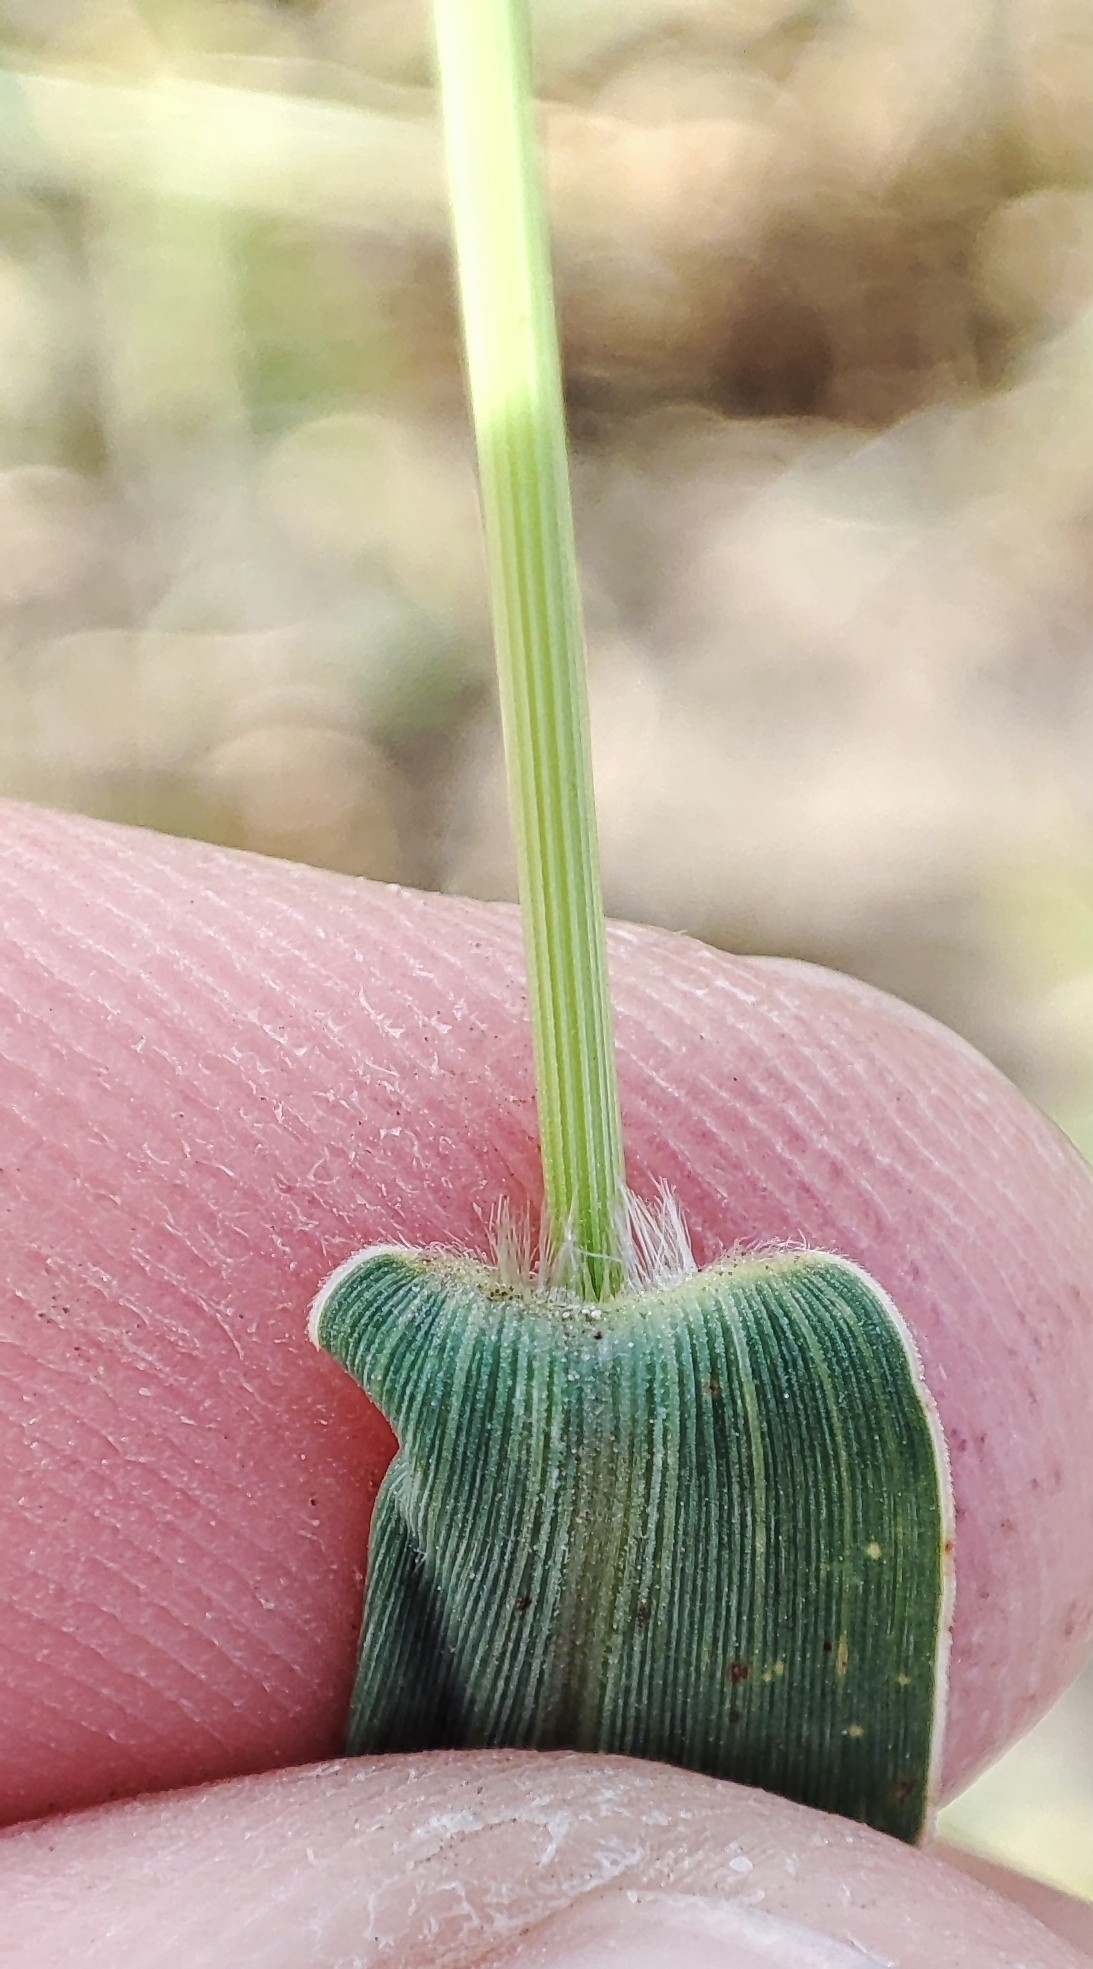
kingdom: Plantae
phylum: Tracheophyta
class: Liliopsida
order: Poales
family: Poaceae
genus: Setaria
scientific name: Setaria viridis
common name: Green bristlegrass
